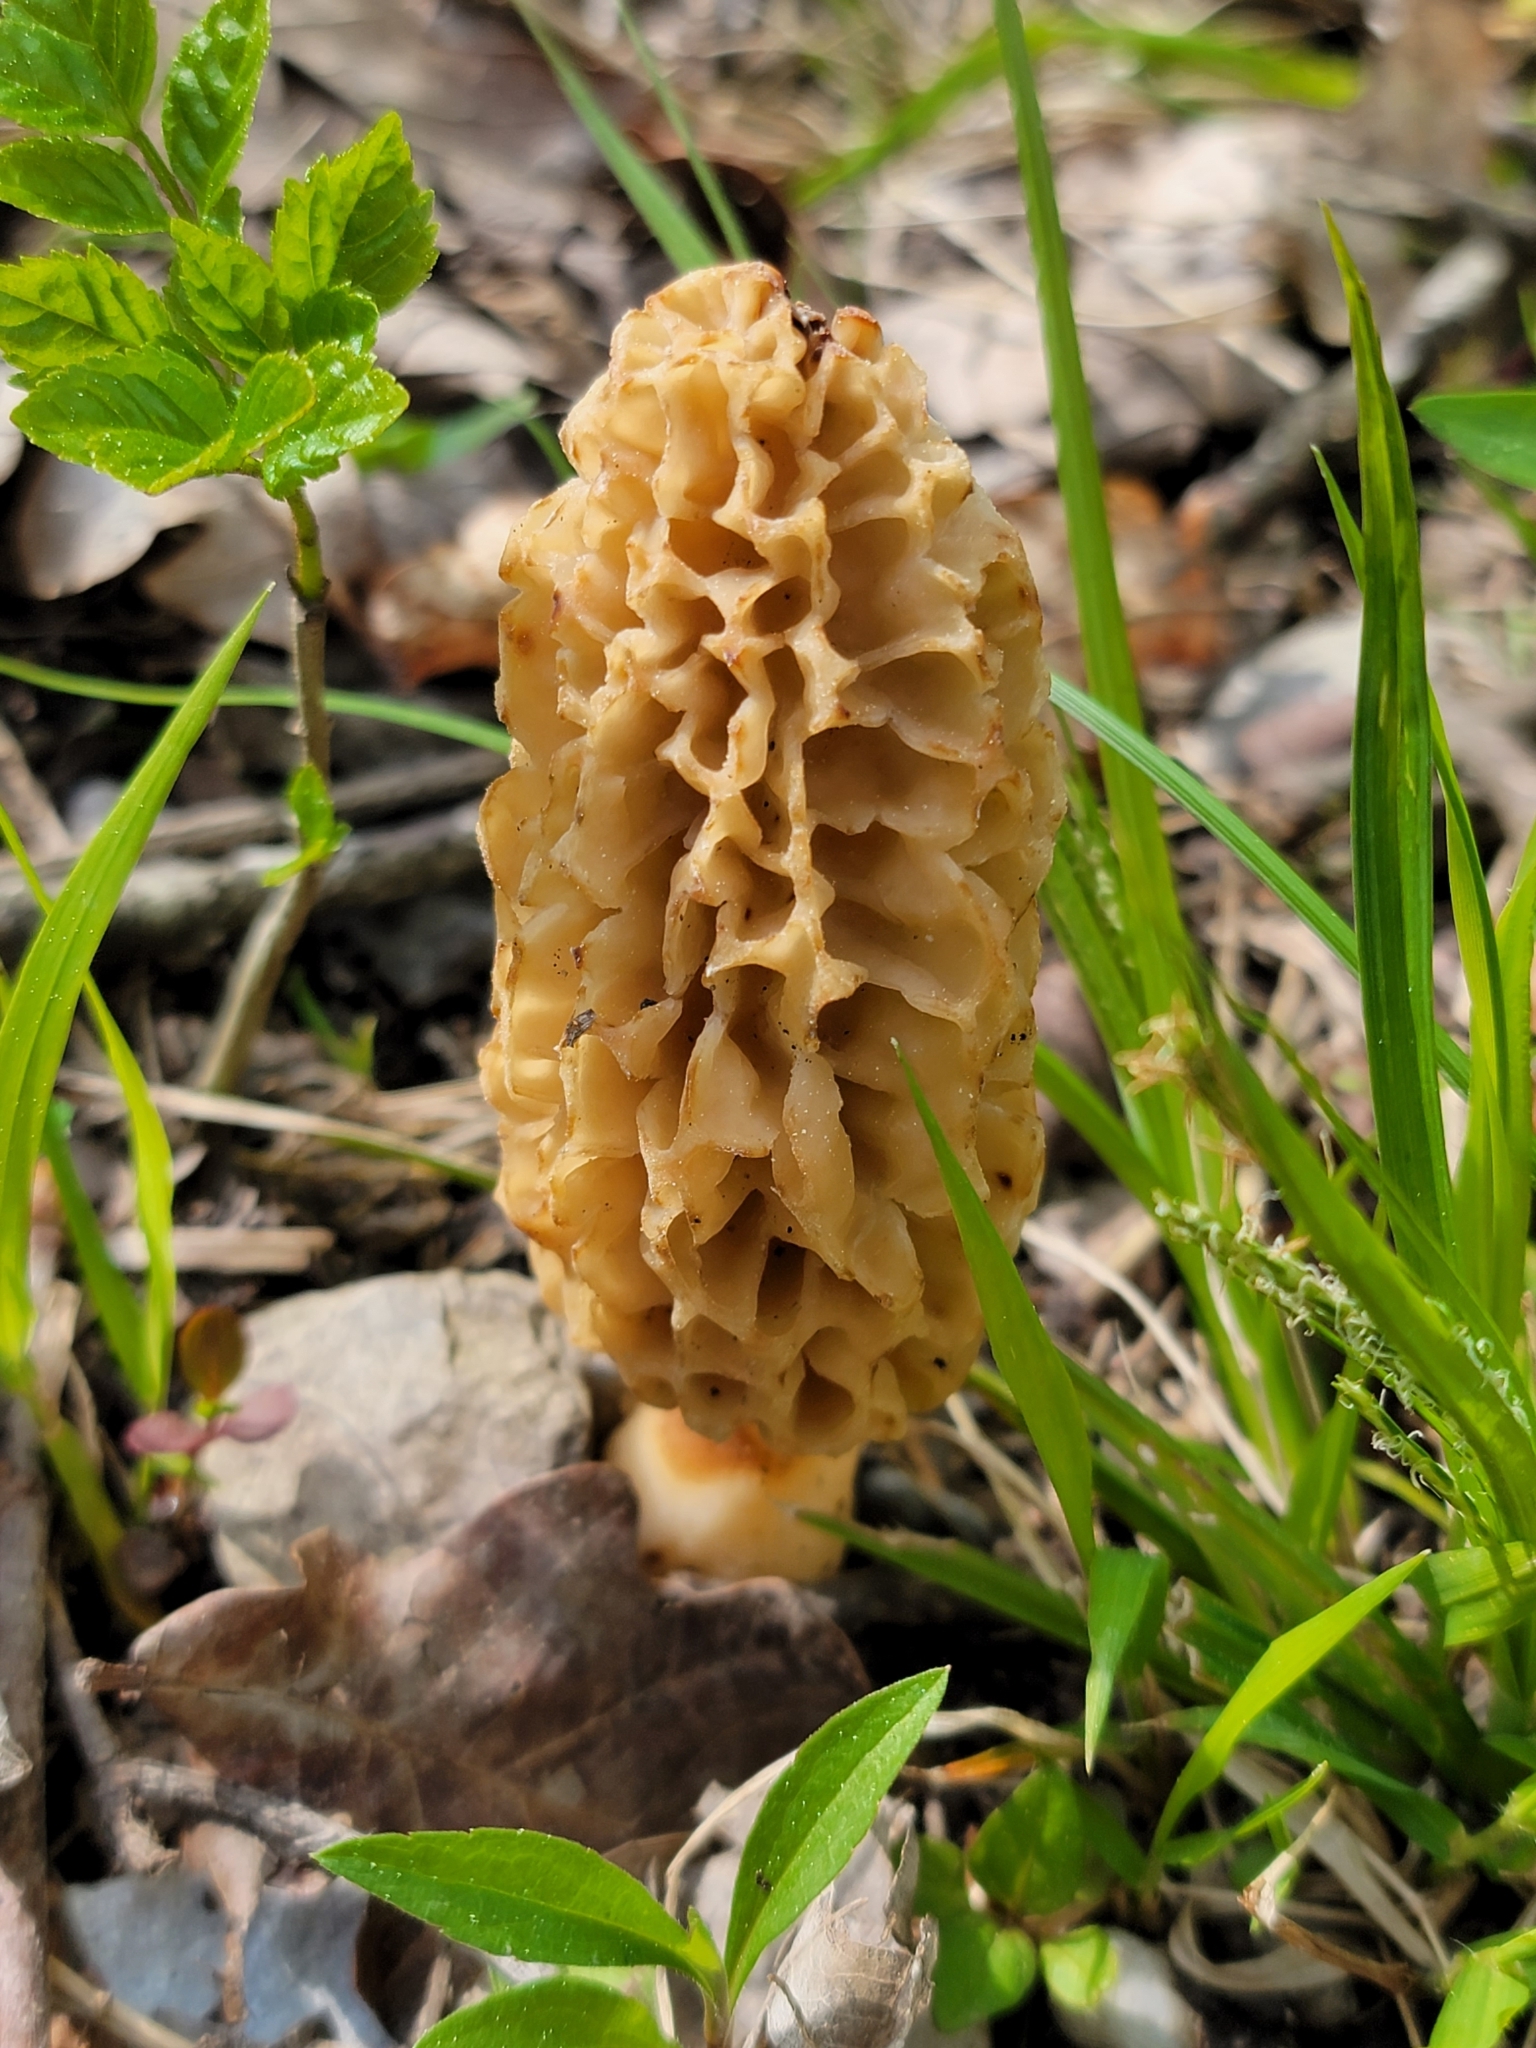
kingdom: Fungi
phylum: Ascomycota
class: Pezizomycetes
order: Pezizales
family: Morchellaceae
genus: Morchella
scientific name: Morchella fluvialis
